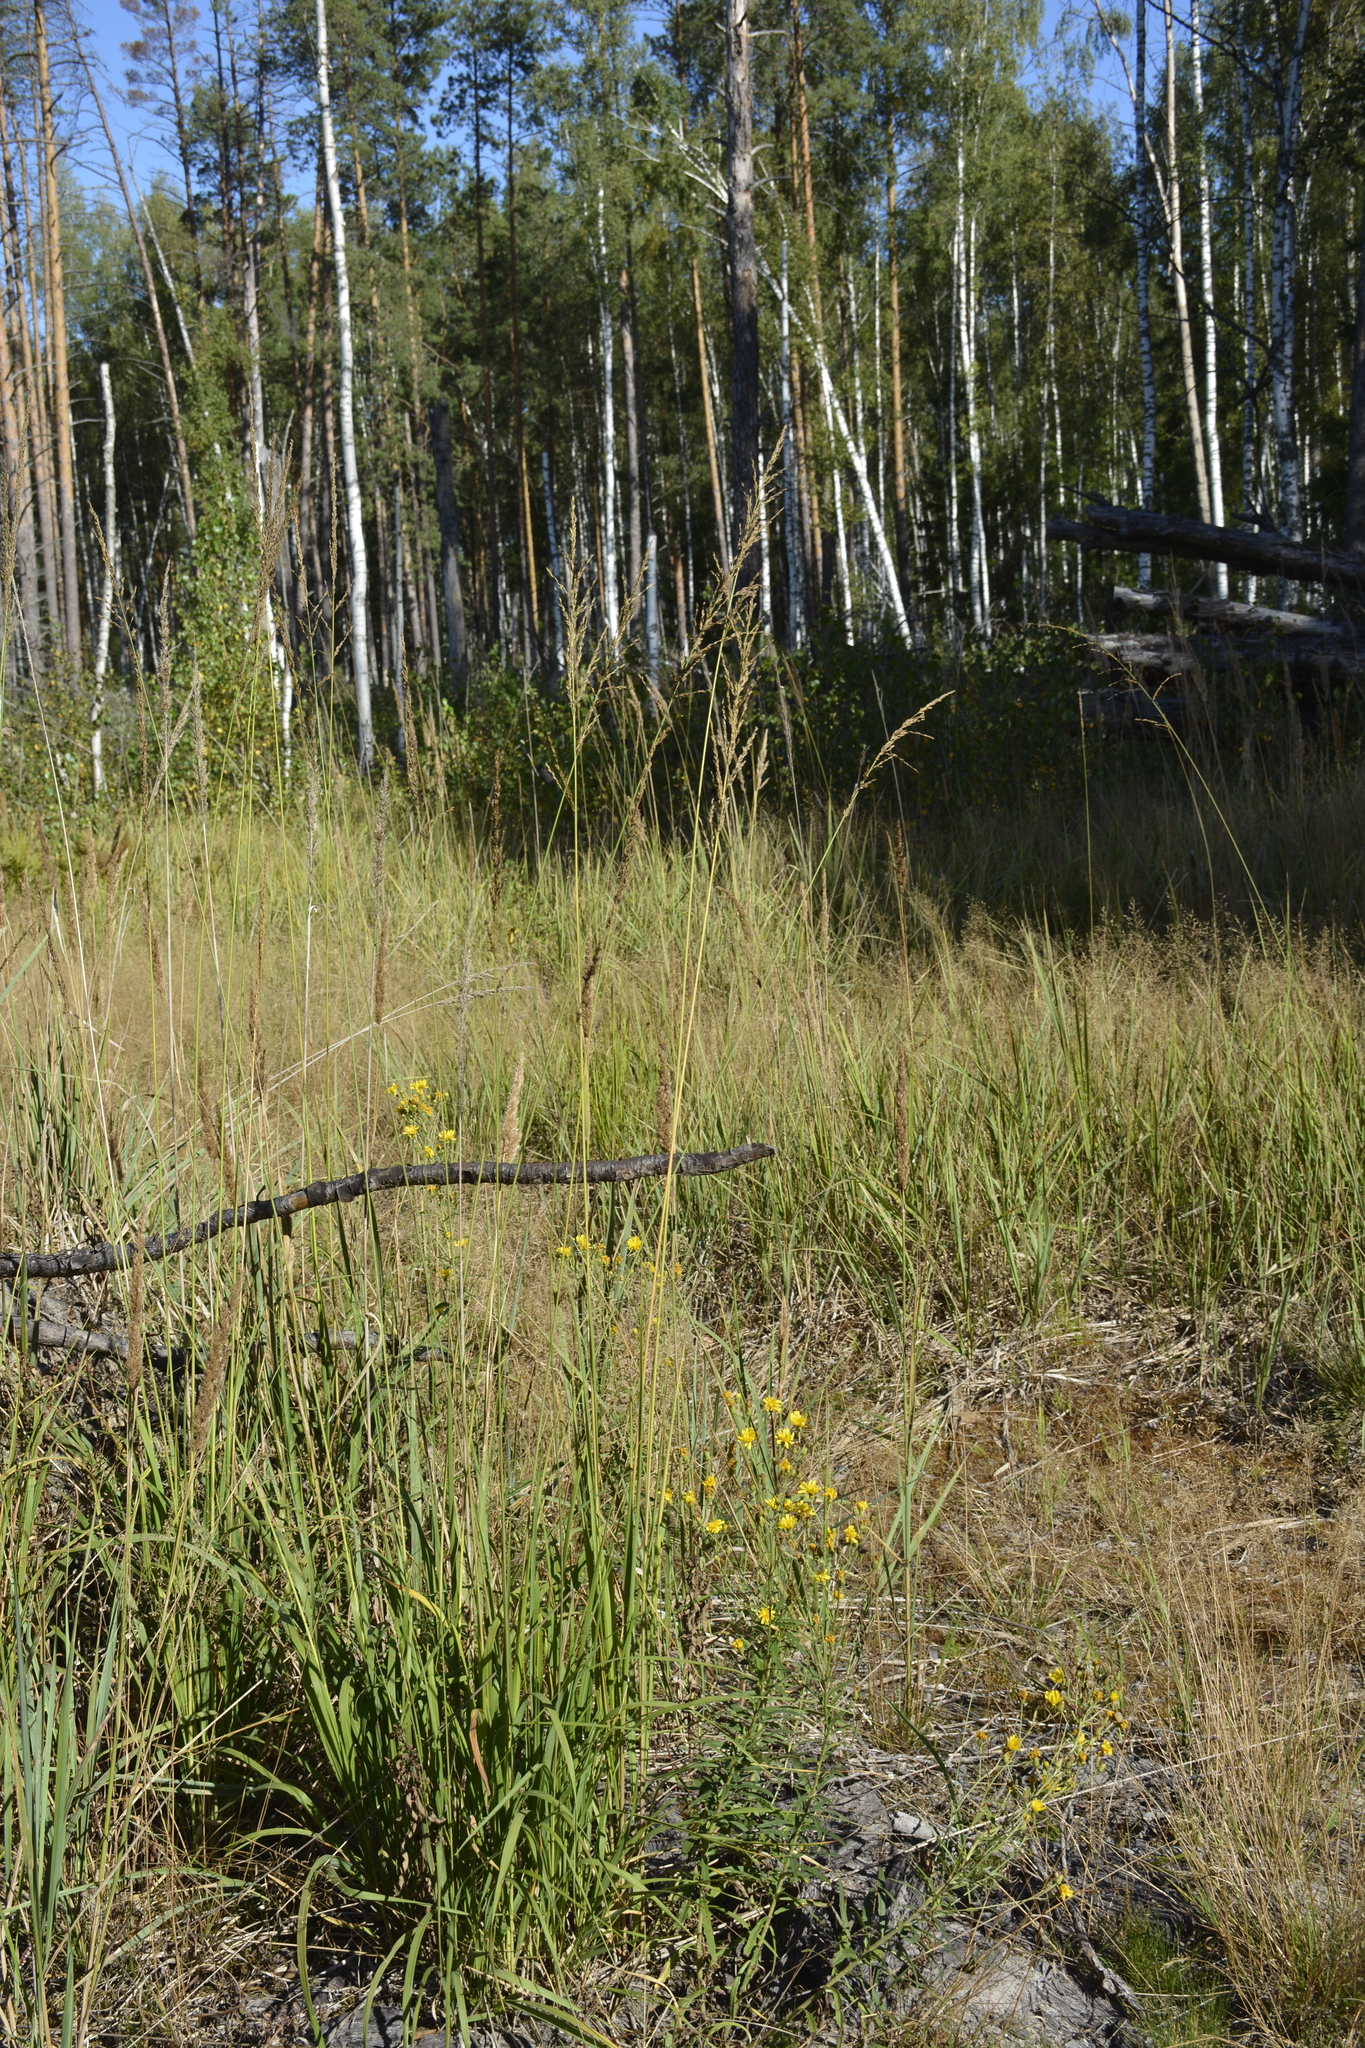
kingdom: Plantae
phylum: Tracheophyta
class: Liliopsida
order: Poales
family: Poaceae
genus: Molinia
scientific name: Molinia caerulea
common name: Purple moor-grass
